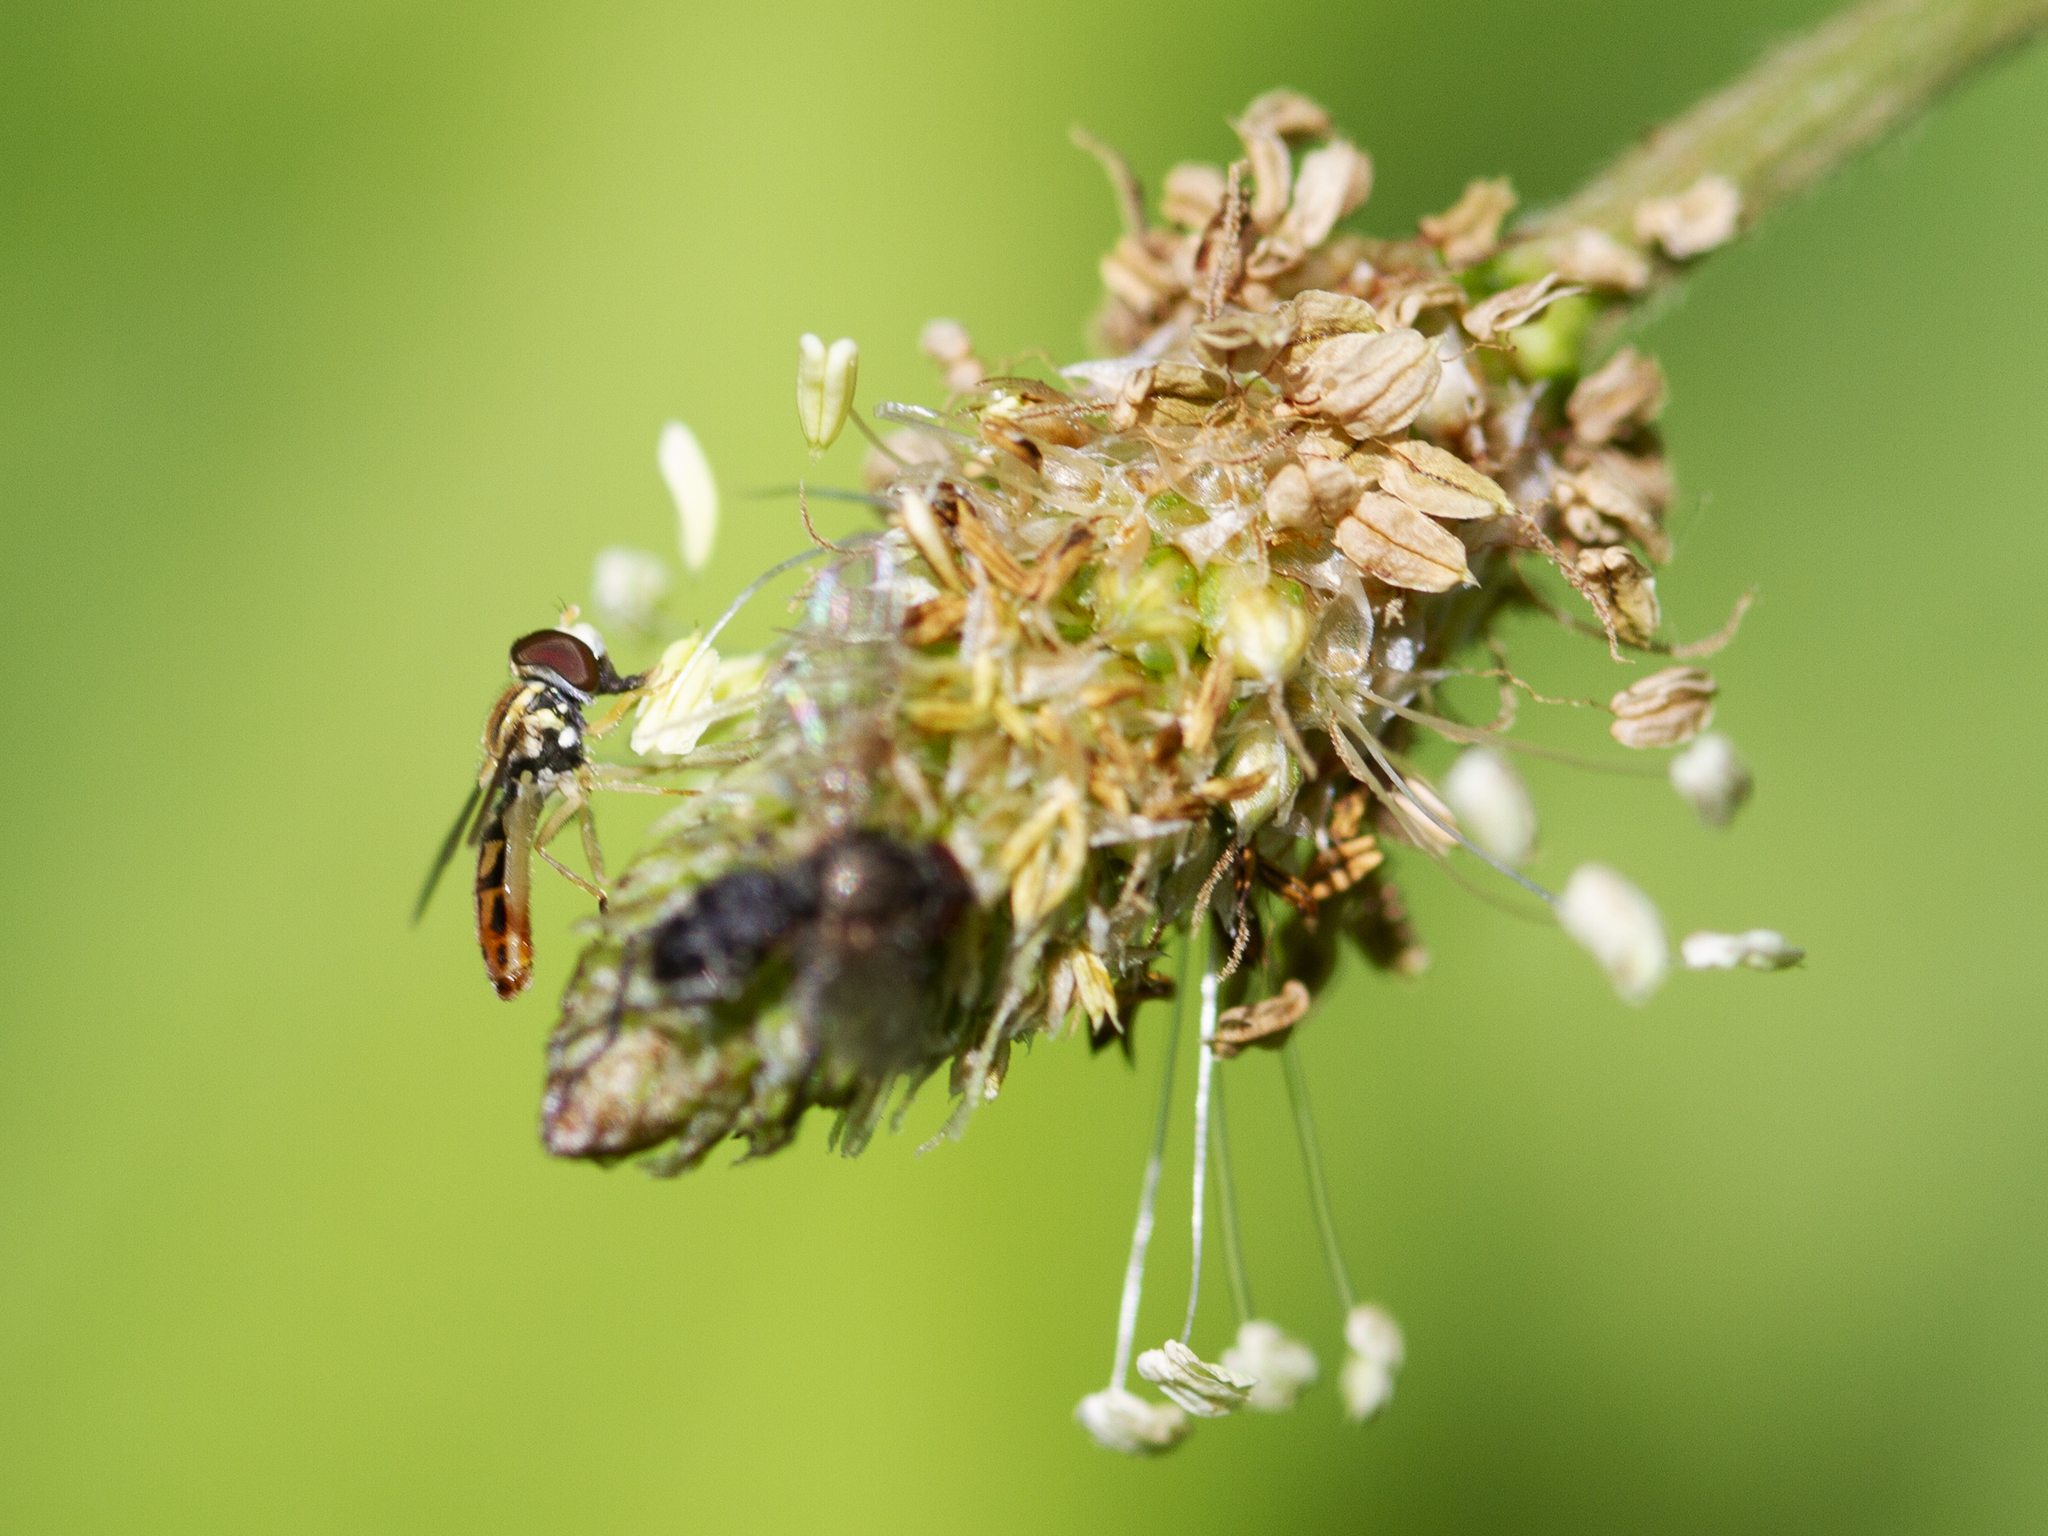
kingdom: Plantae
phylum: Tracheophyta
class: Magnoliopsida
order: Lamiales
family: Plantaginaceae
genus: Plantago
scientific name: Plantago lanceolata
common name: Ribwort plantain
